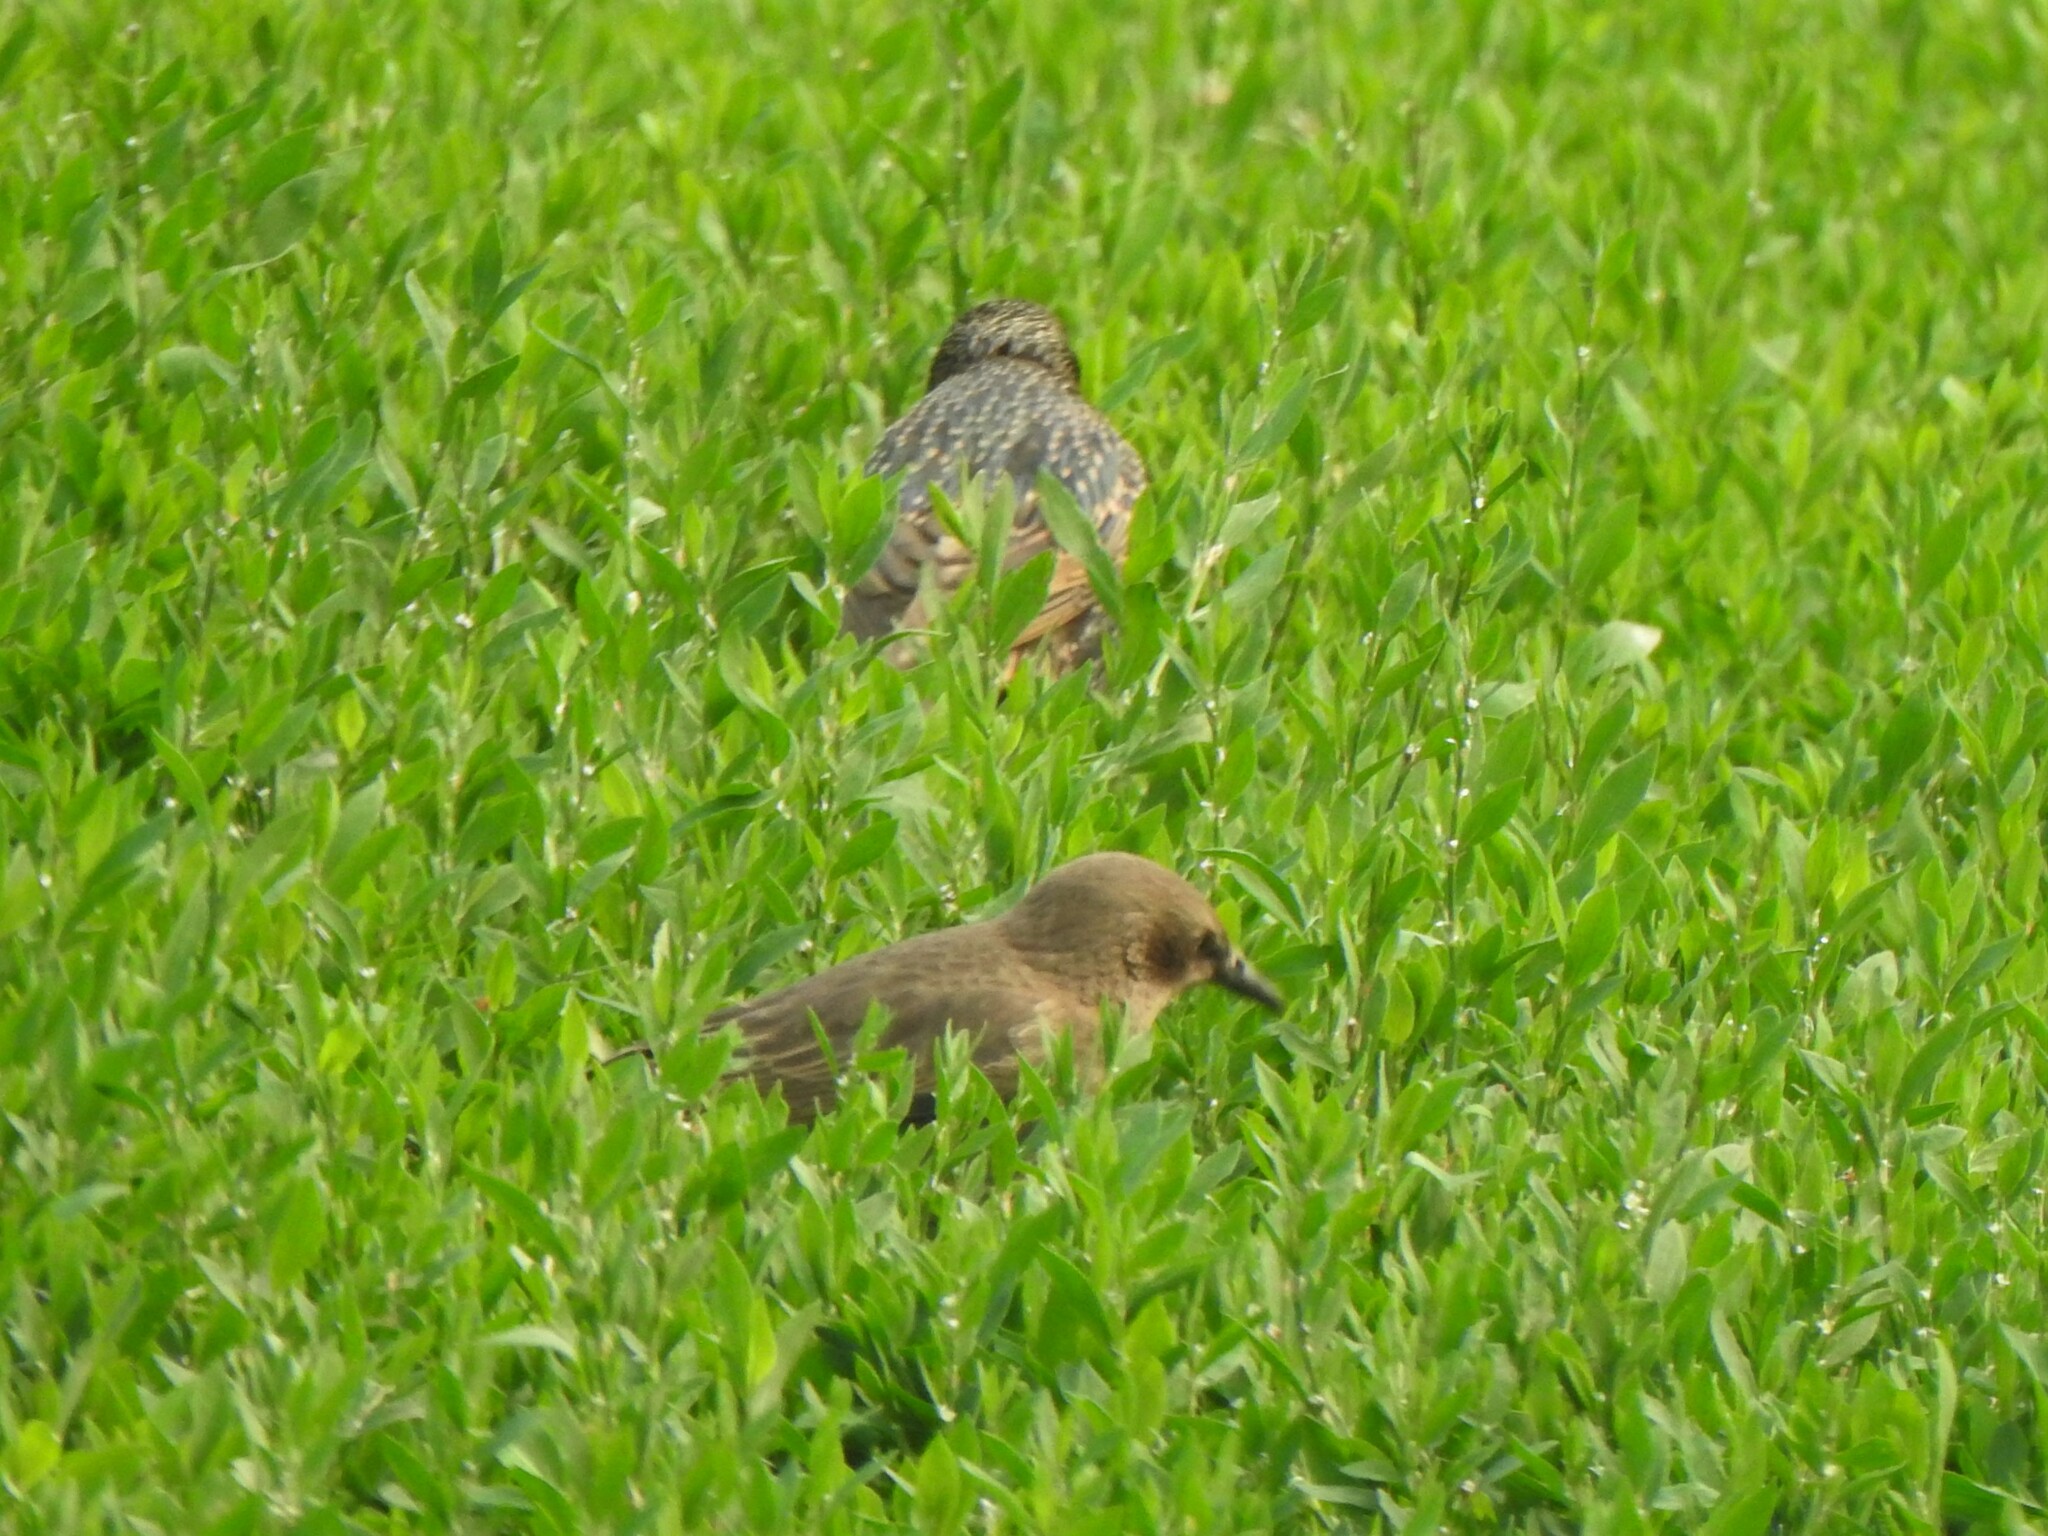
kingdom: Animalia
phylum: Chordata
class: Aves
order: Passeriformes
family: Sturnidae
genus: Sturnus
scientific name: Sturnus vulgaris
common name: Common starling
